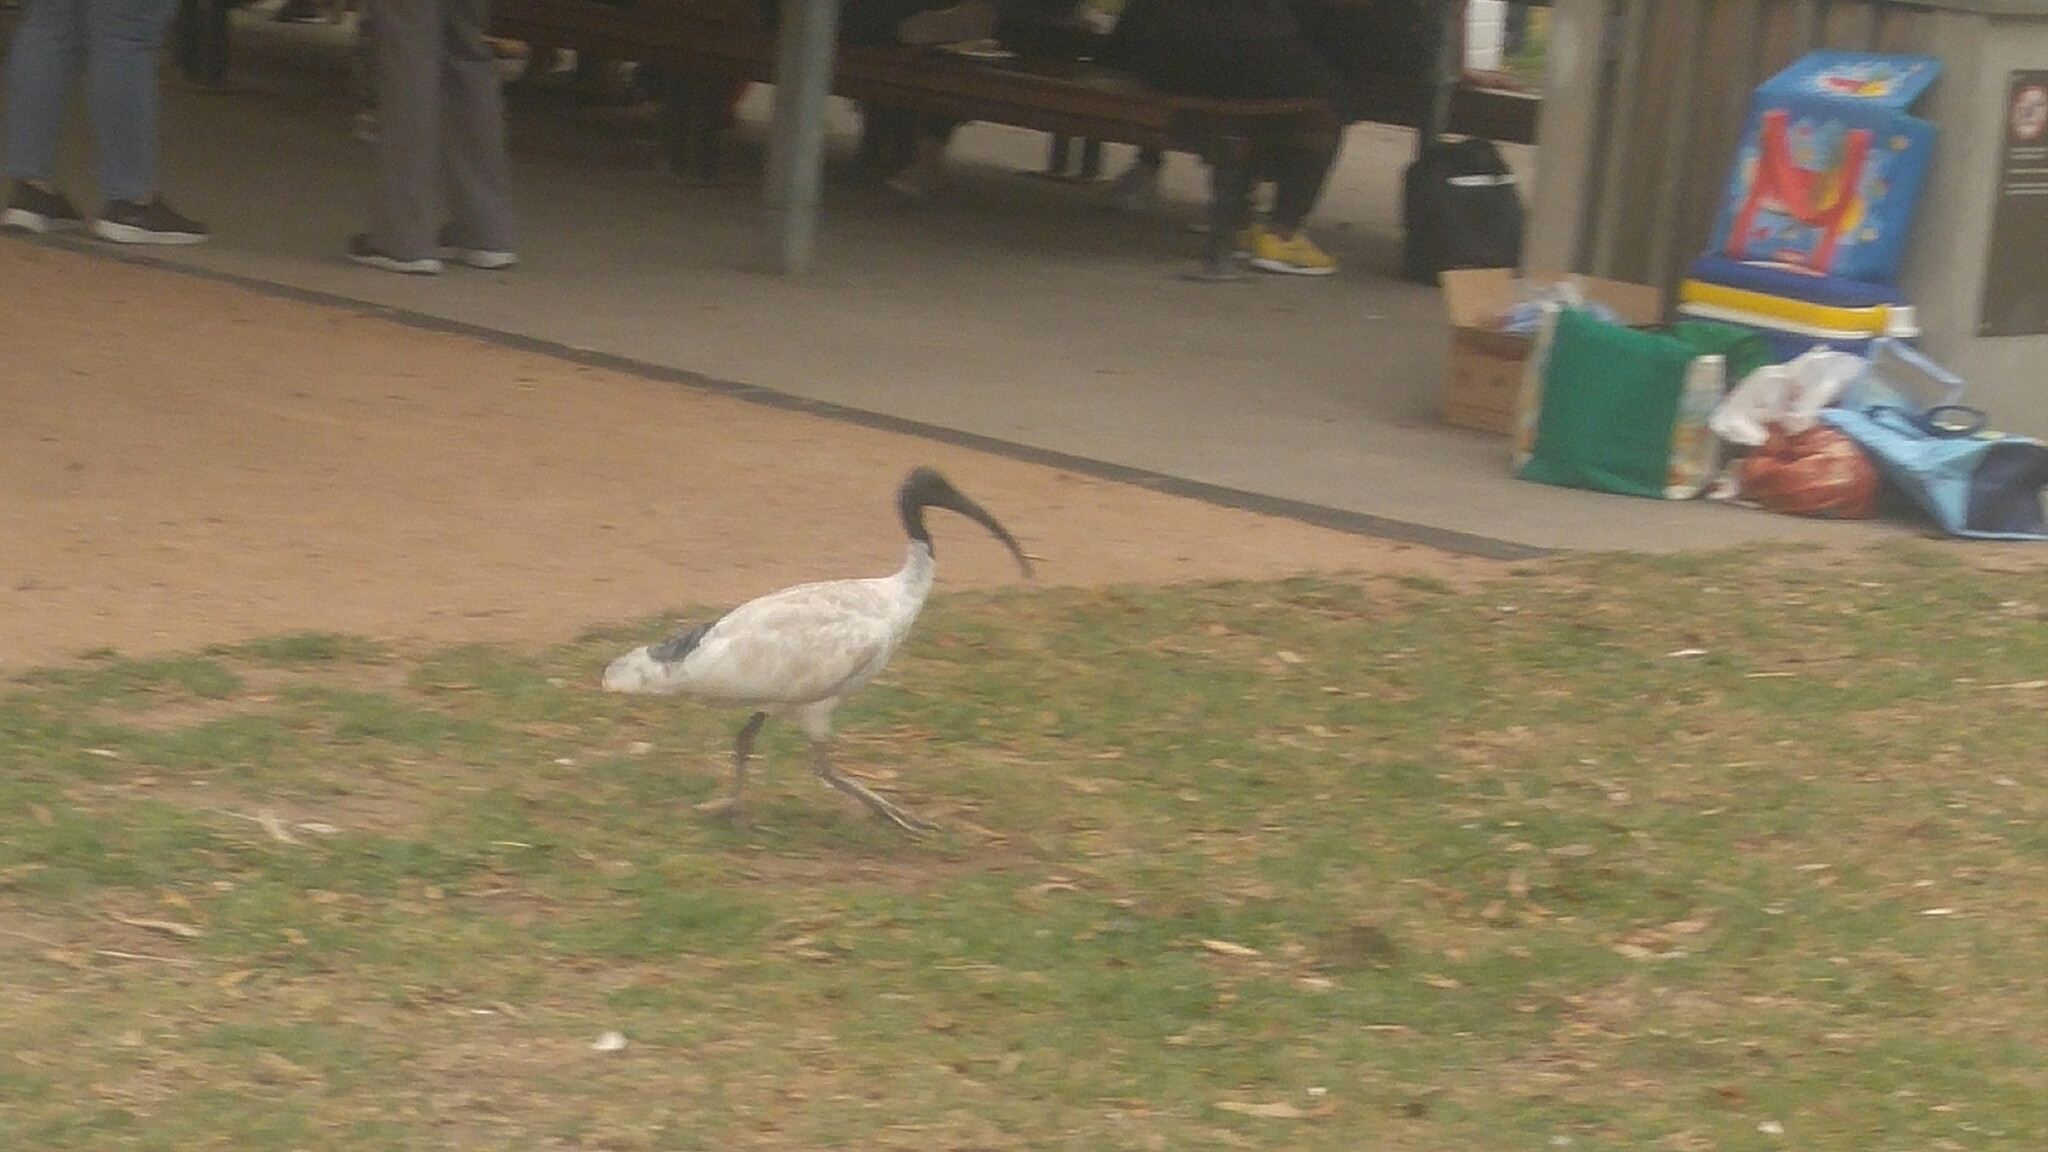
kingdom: Animalia
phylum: Chordata
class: Aves
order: Pelecaniformes
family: Threskiornithidae
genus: Threskiornis
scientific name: Threskiornis molucca
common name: Australian white ibis
